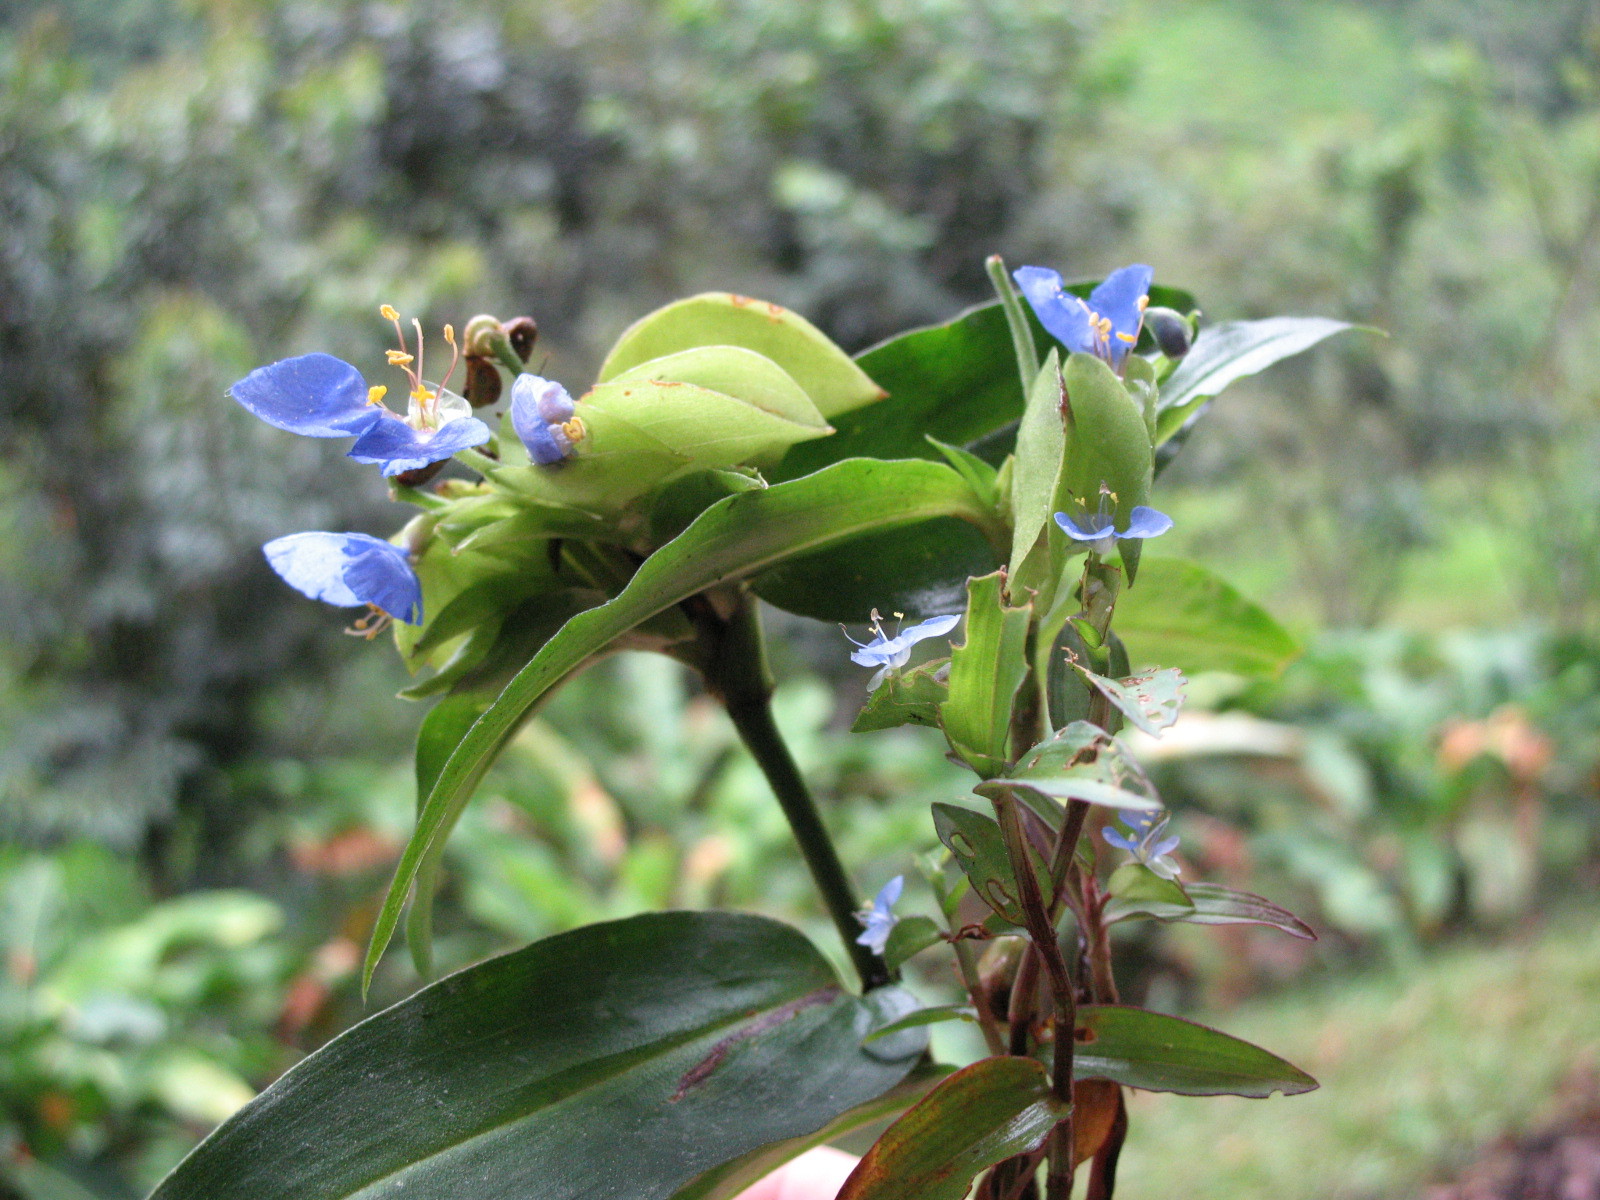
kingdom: Plantae
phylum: Tracheophyta
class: Liliopsida
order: Commelinales
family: Commelinaceae
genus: Commelina
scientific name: Commelina obliqua
